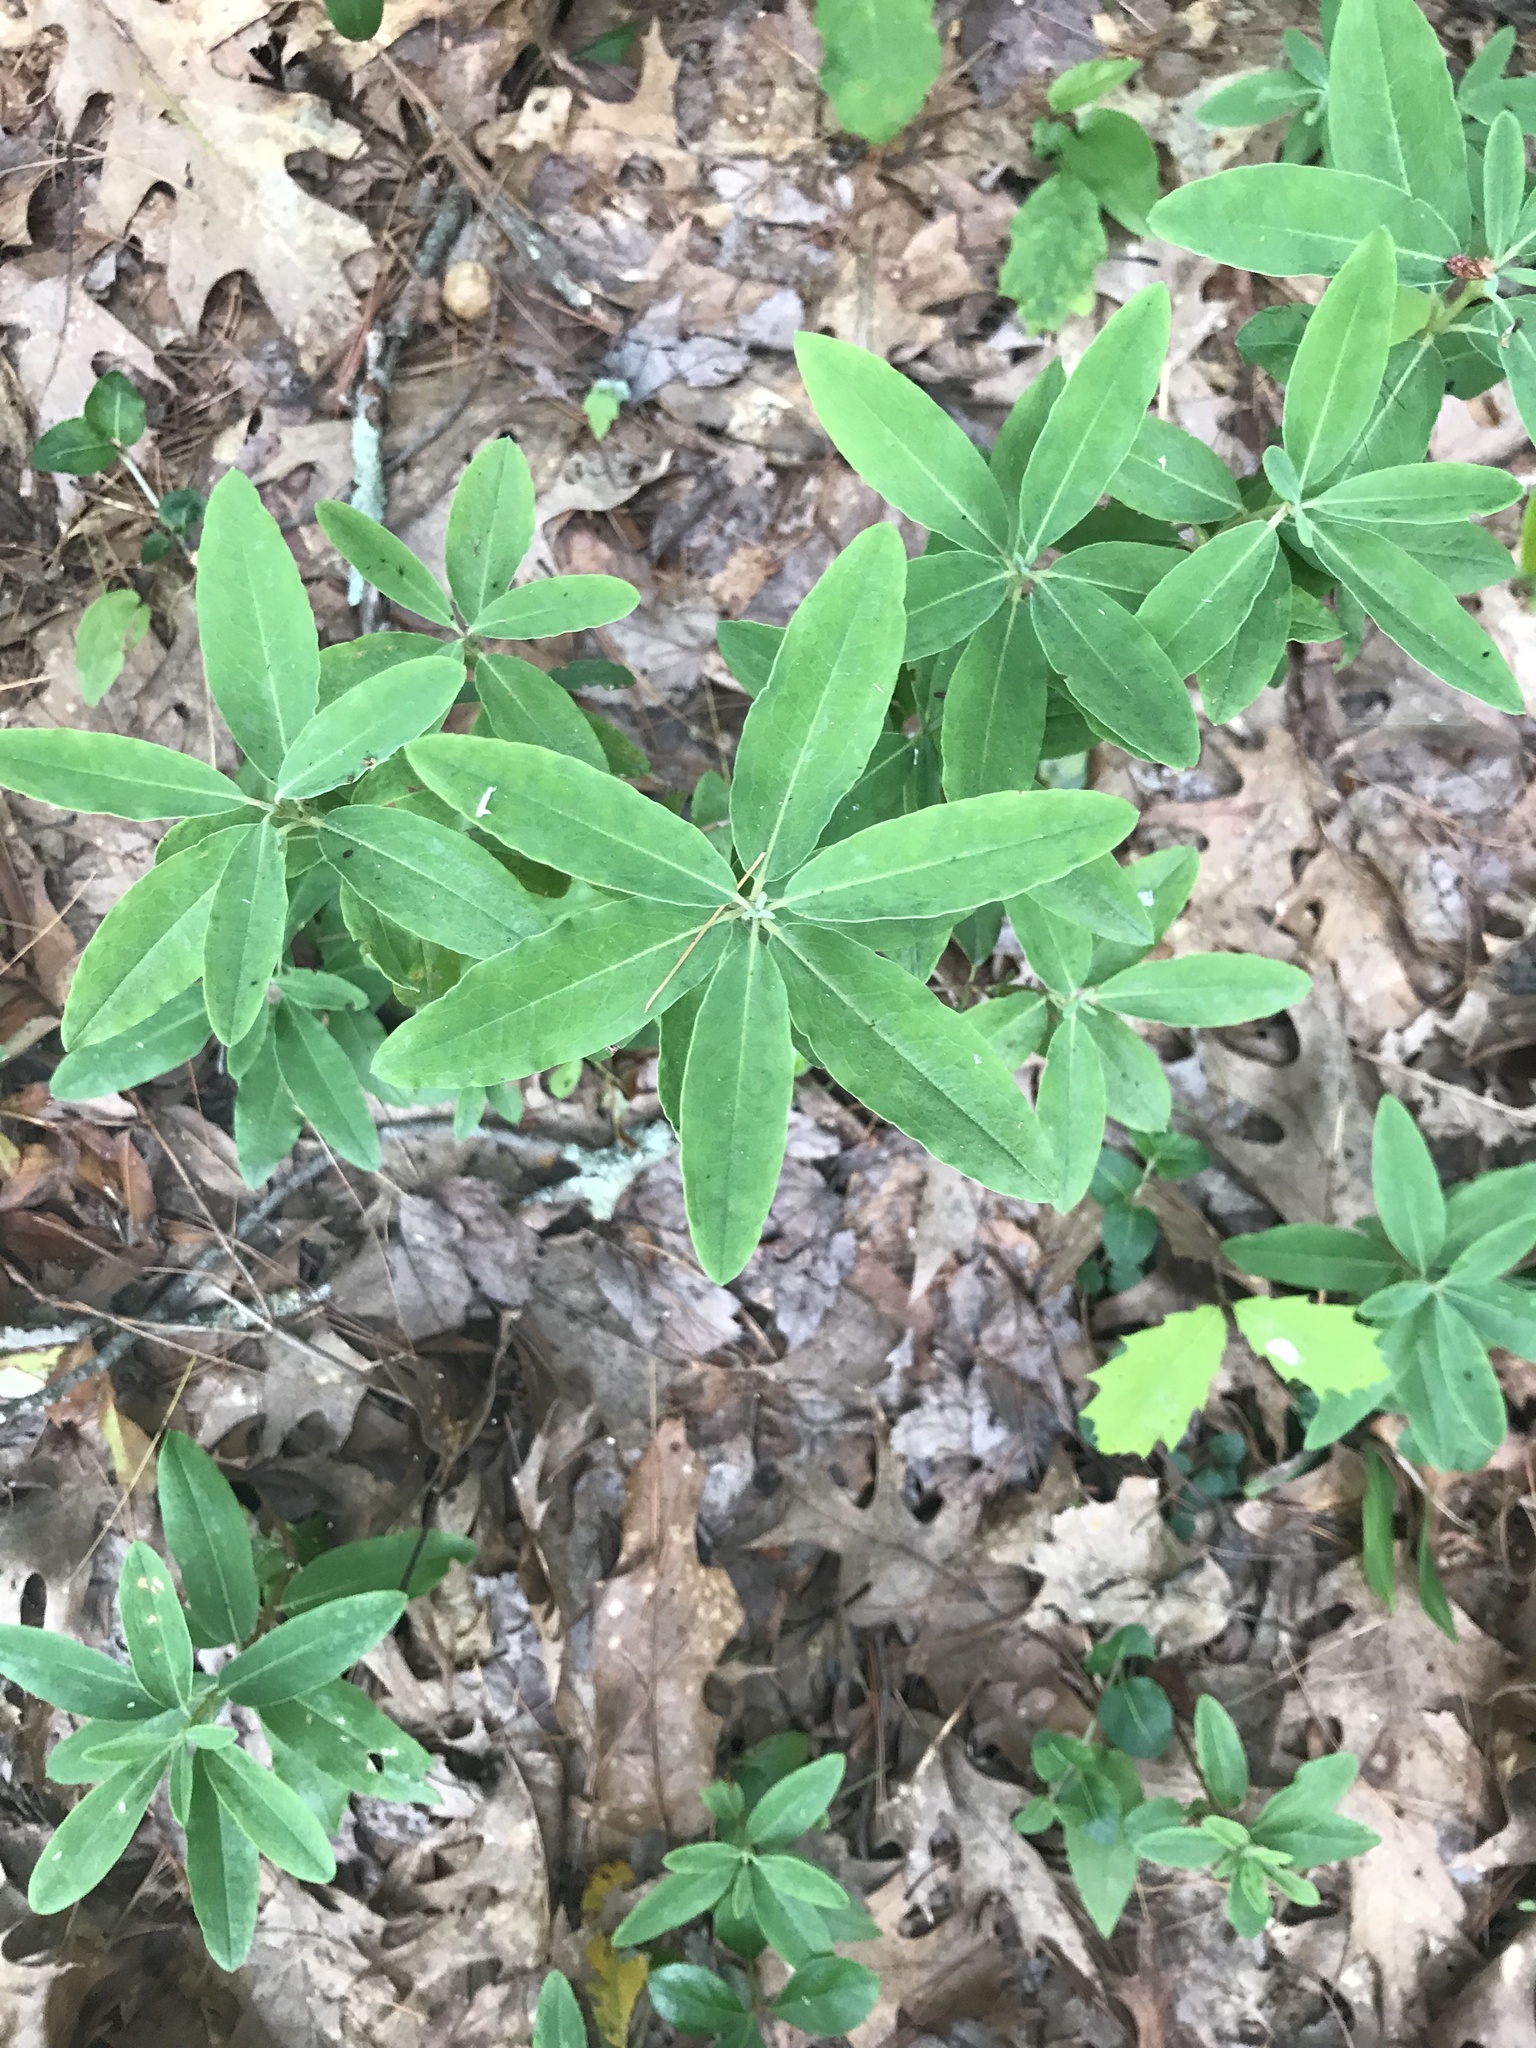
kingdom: Plantae
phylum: Tracheophyta
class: Magnoliopsida
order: Ericales
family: Ericaceae
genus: Kalmia
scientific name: Kalmia angustifolia
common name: Sheep-laurel
